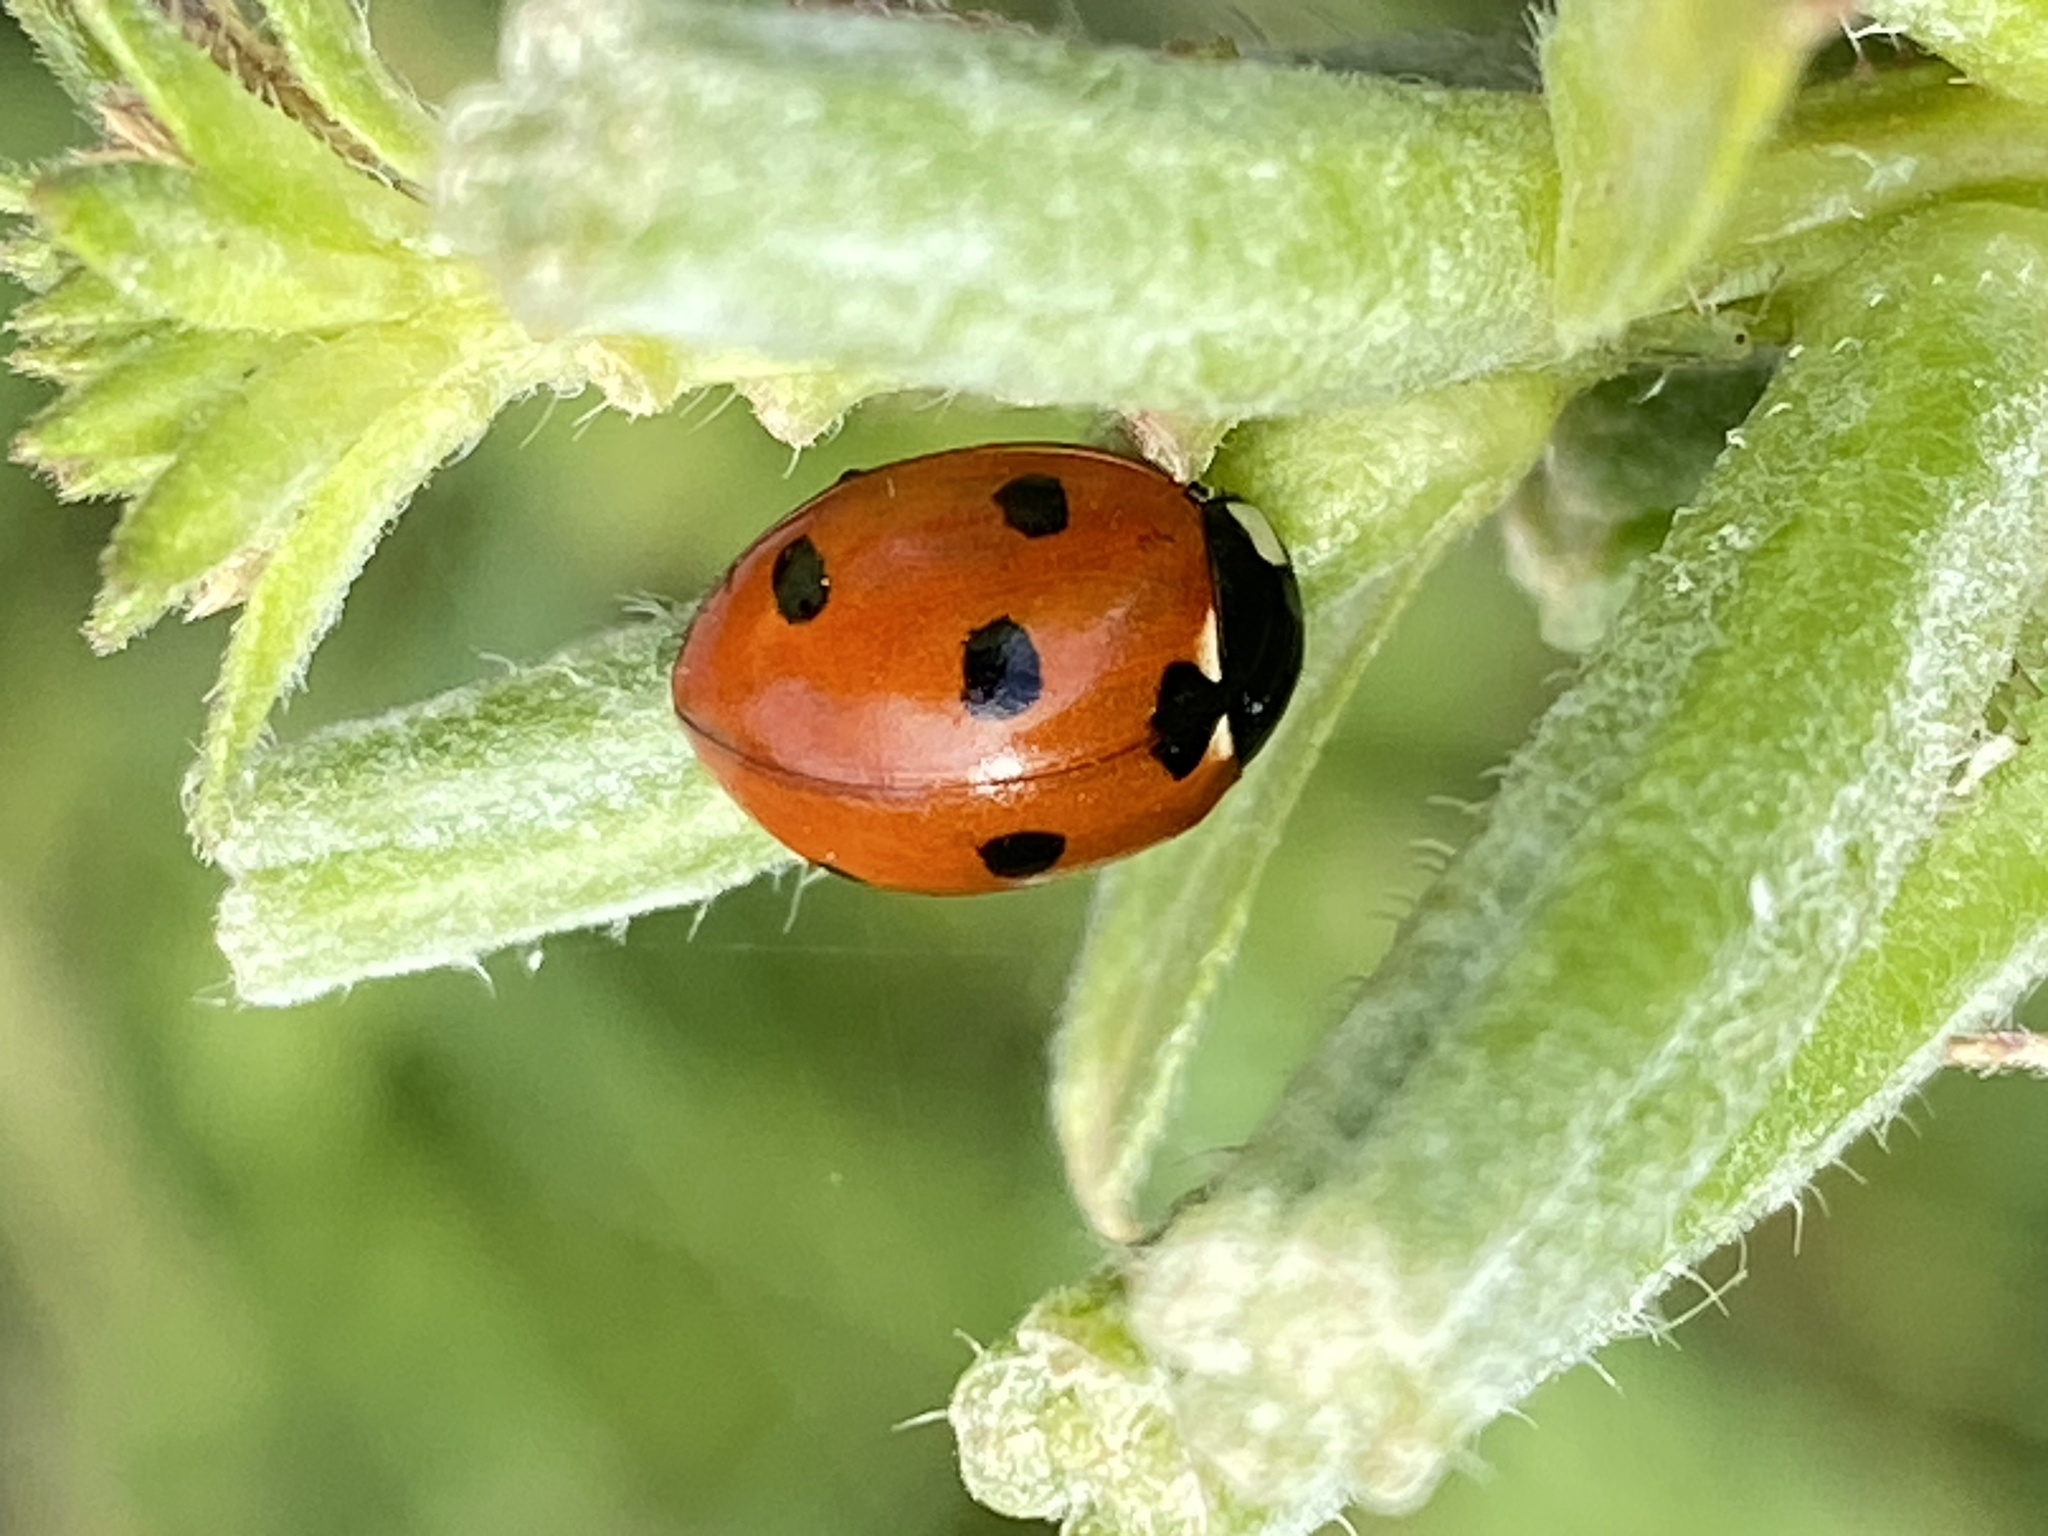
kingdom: Animalia
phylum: Arthropoda
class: Insecta
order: Coleoptera
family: Coccinellidae
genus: Coccinella
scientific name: Coccinella septempunctata
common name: Sevenspotted lady beetle
